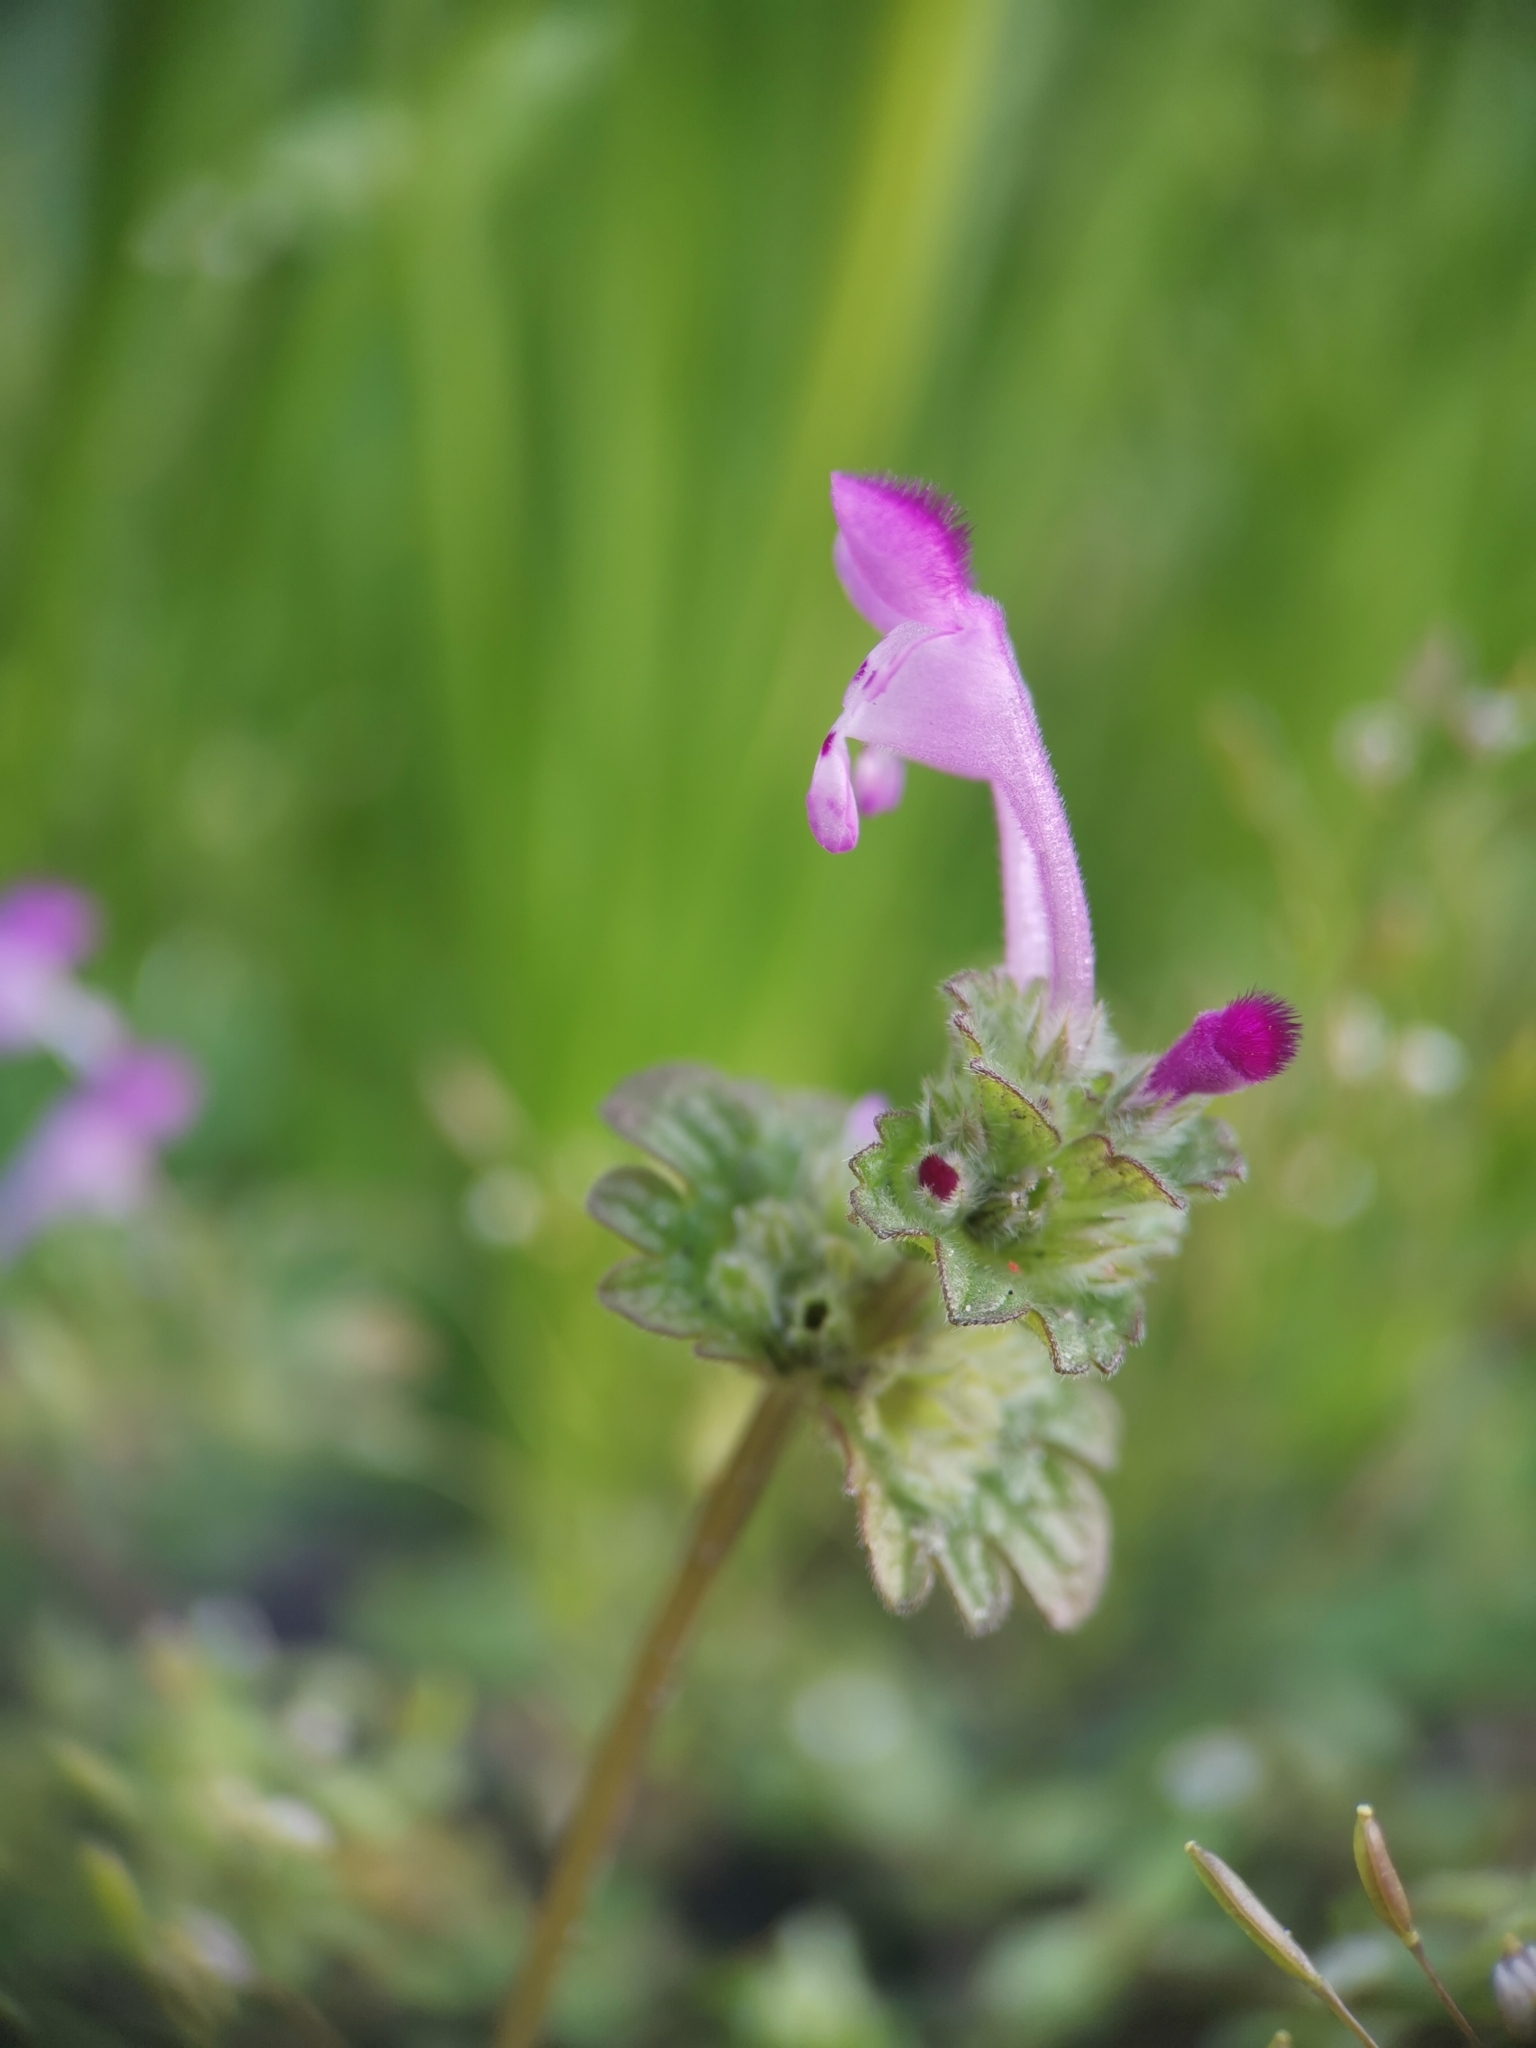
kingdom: Plantae
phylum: Tracheophyta
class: Magnoliopsida
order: Lamiales
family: Lamiaceae
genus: Lamium
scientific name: Lamium amplexicaule
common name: Henbit dead-nettle
